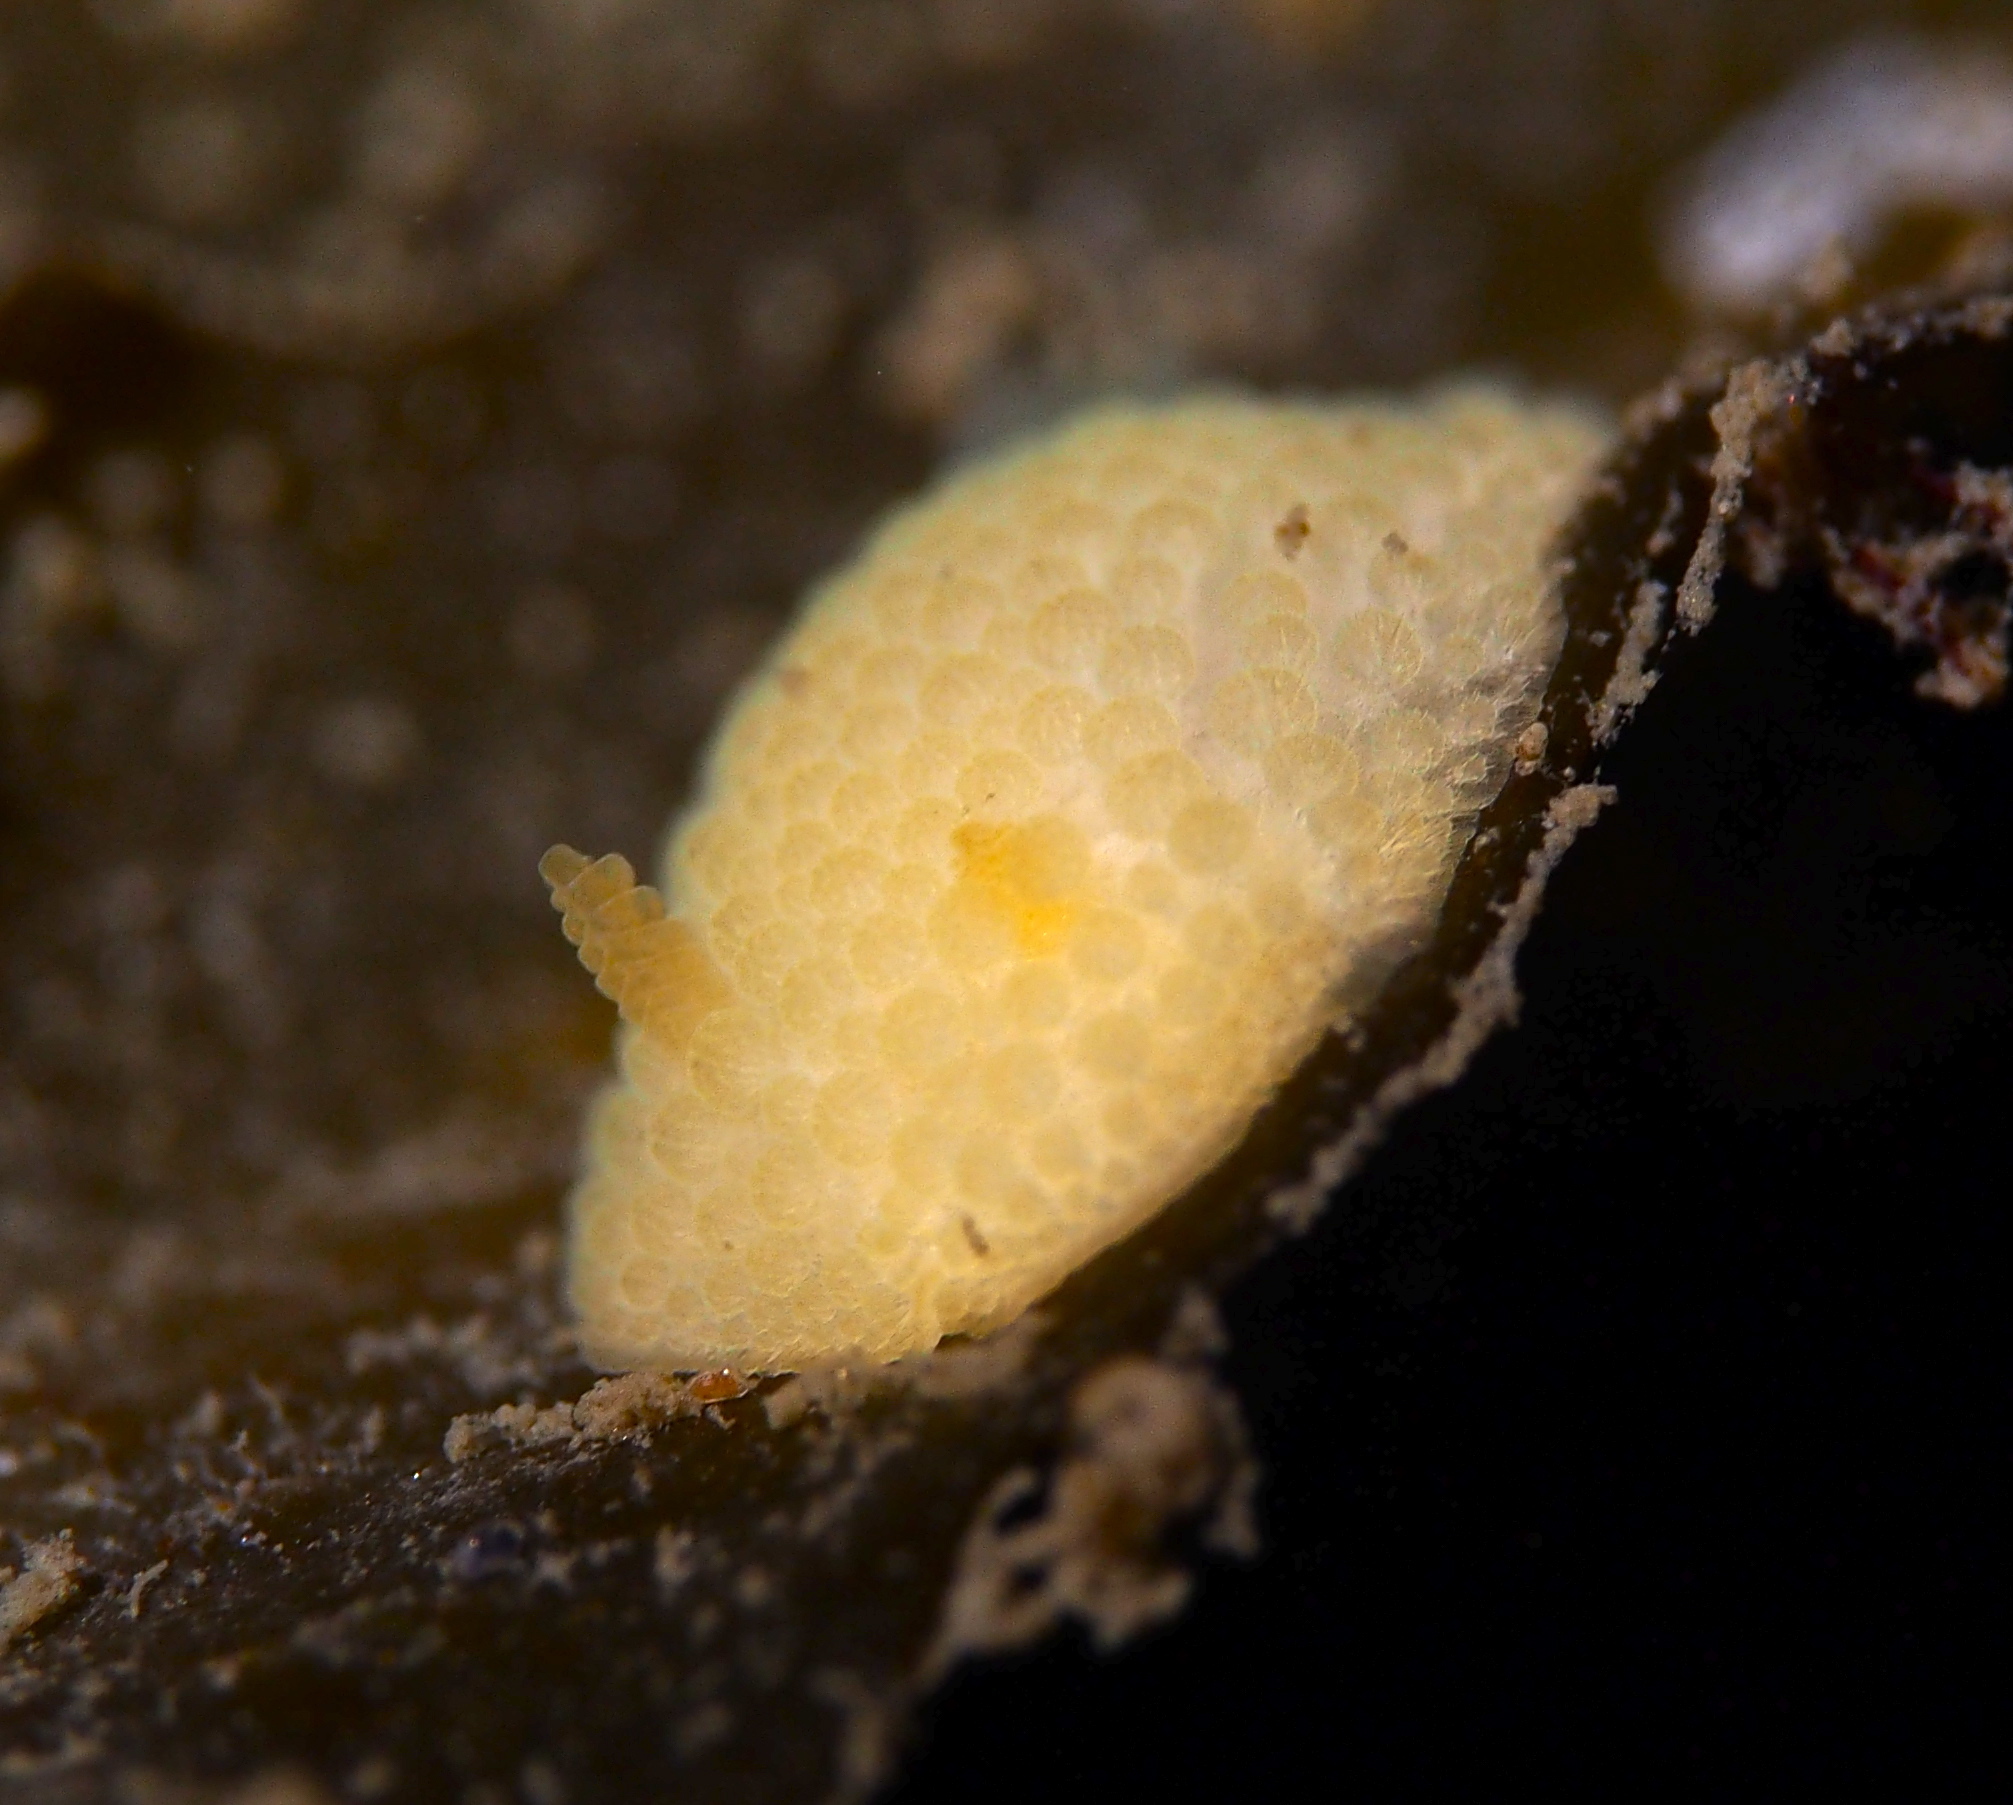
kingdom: Animalia
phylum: Mollusca
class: Gastropoda
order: Nudibranchia
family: Onchidorididae
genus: Onchidoris
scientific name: Onchidoris muricata
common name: Rough doris
